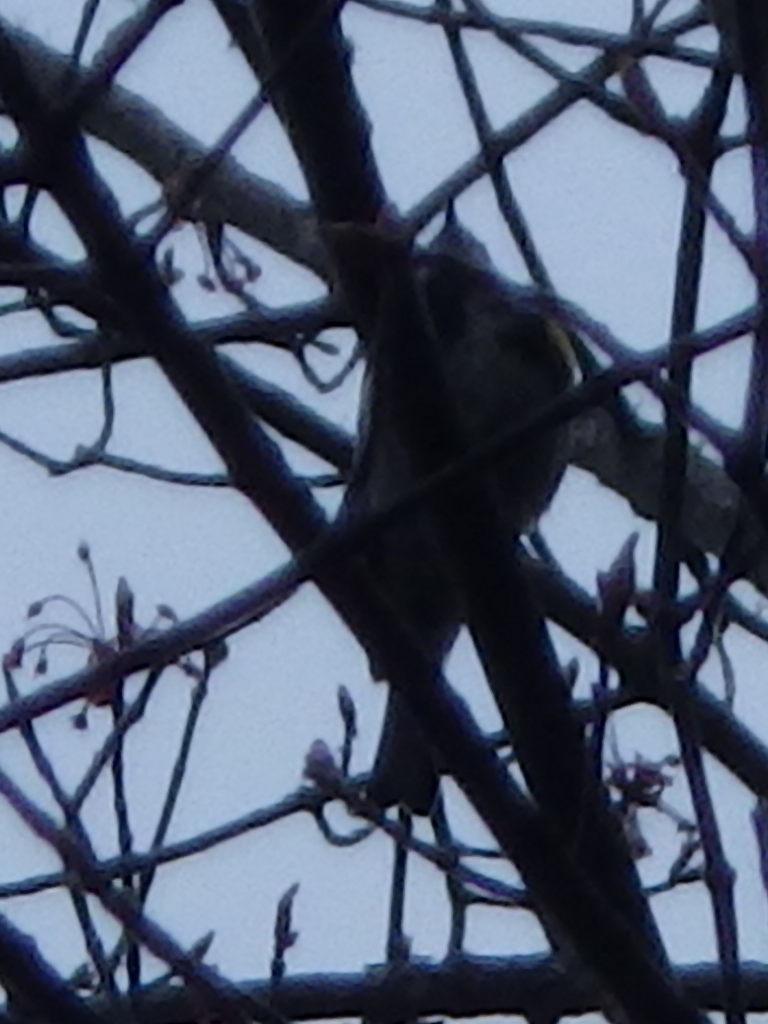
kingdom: Animalia
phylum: Chordata
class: Aves
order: Passeriformes
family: Parulidae
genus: Setophaga
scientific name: Setophaga coronata
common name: Myrtle warbler
